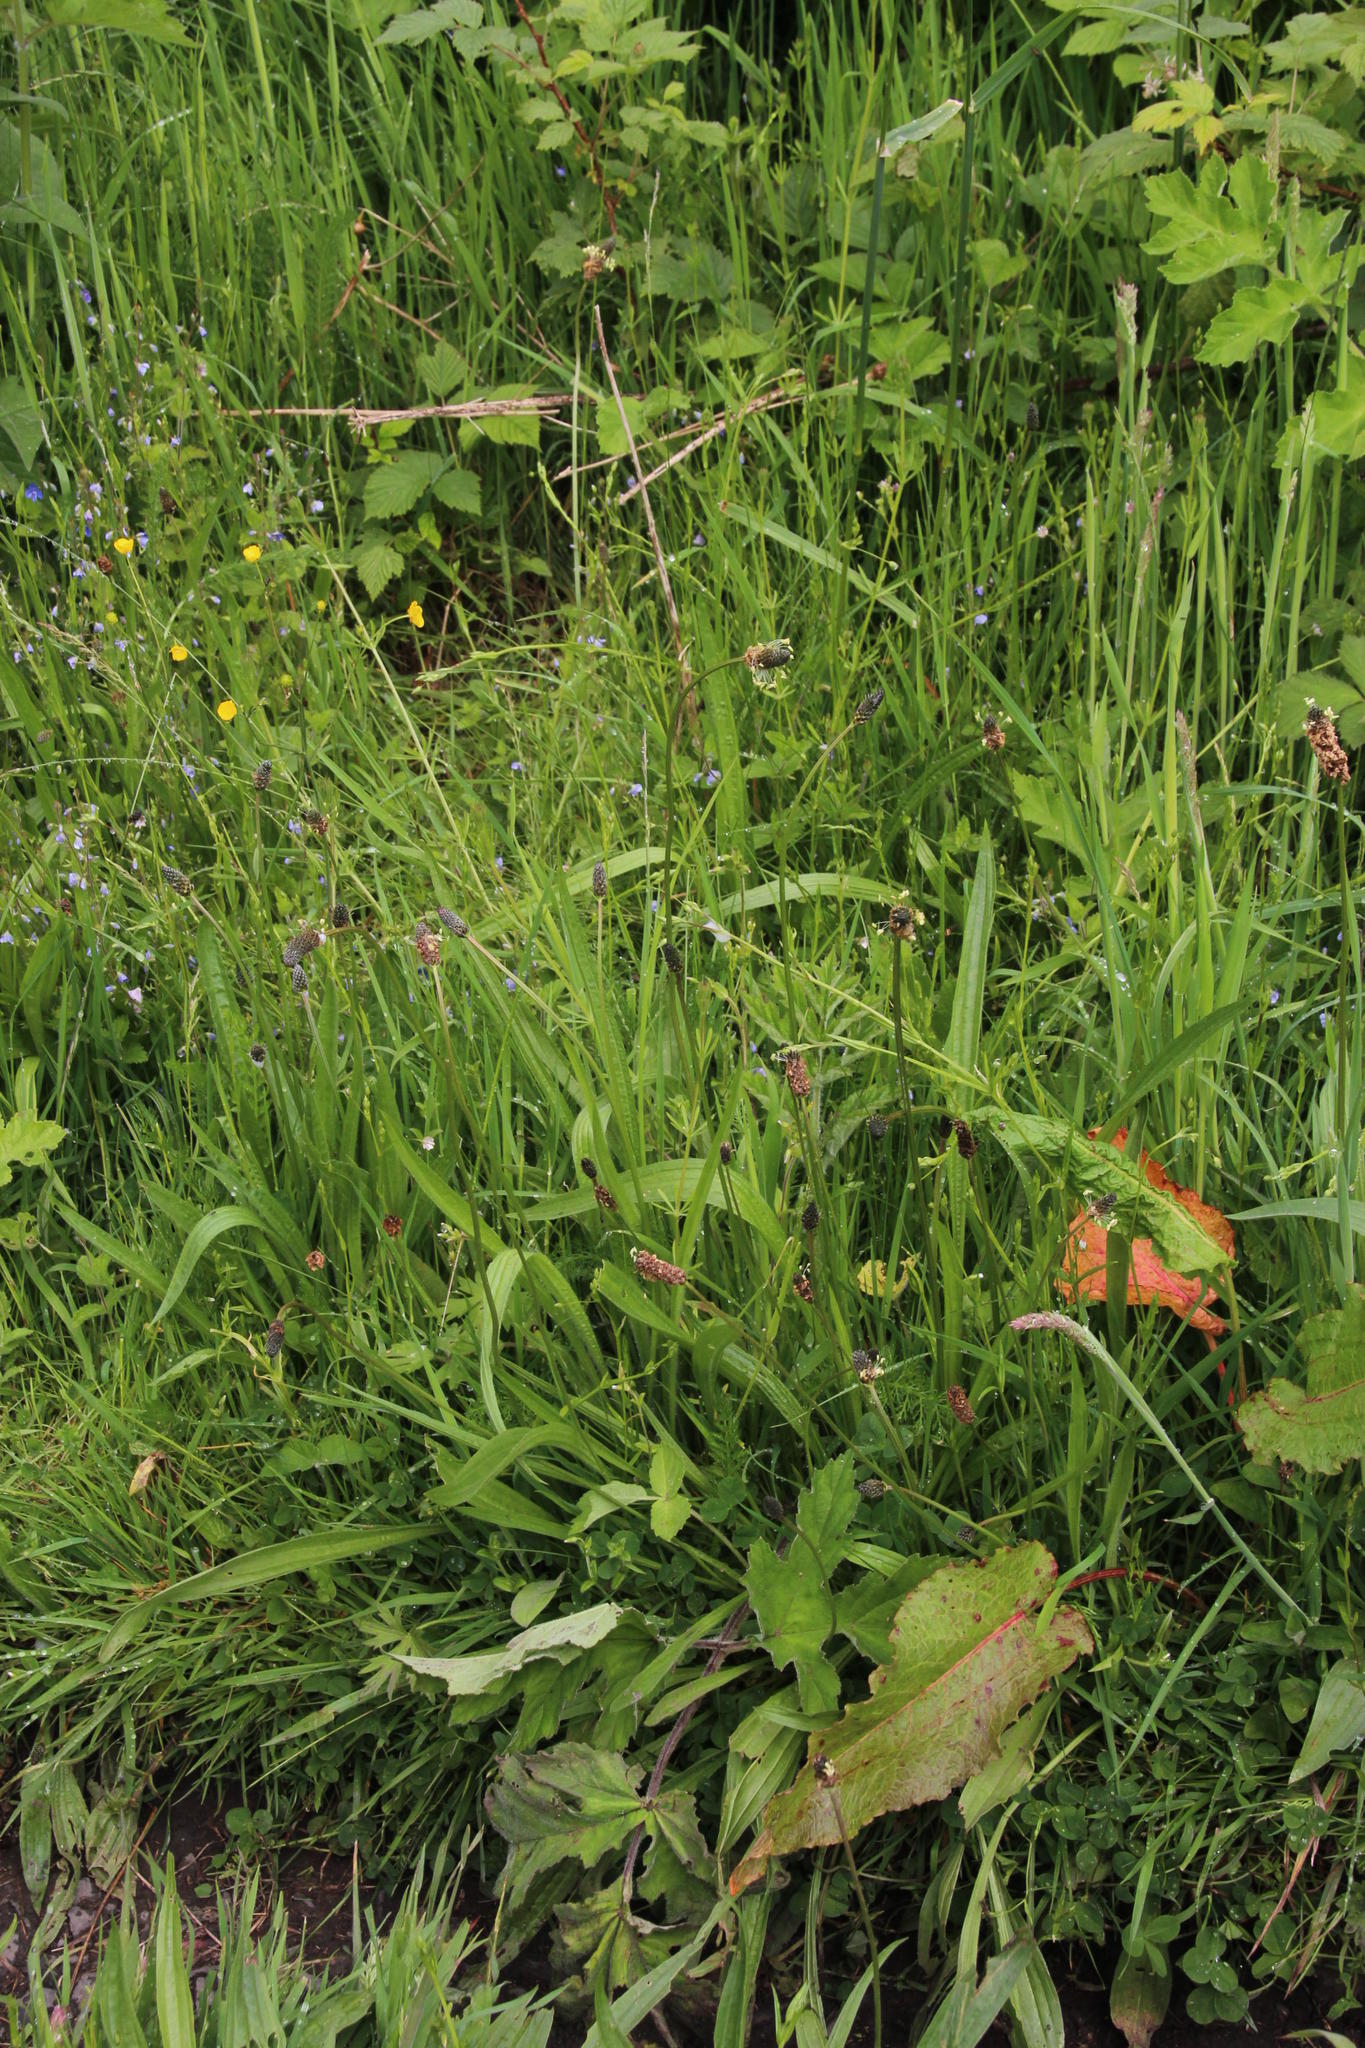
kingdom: Plantae
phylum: Tracheophyta
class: Magnoliopsida
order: Lamiales
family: Plantaginaceae
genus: Plantago
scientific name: Plantago lanceolata
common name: Ribwort plantain
